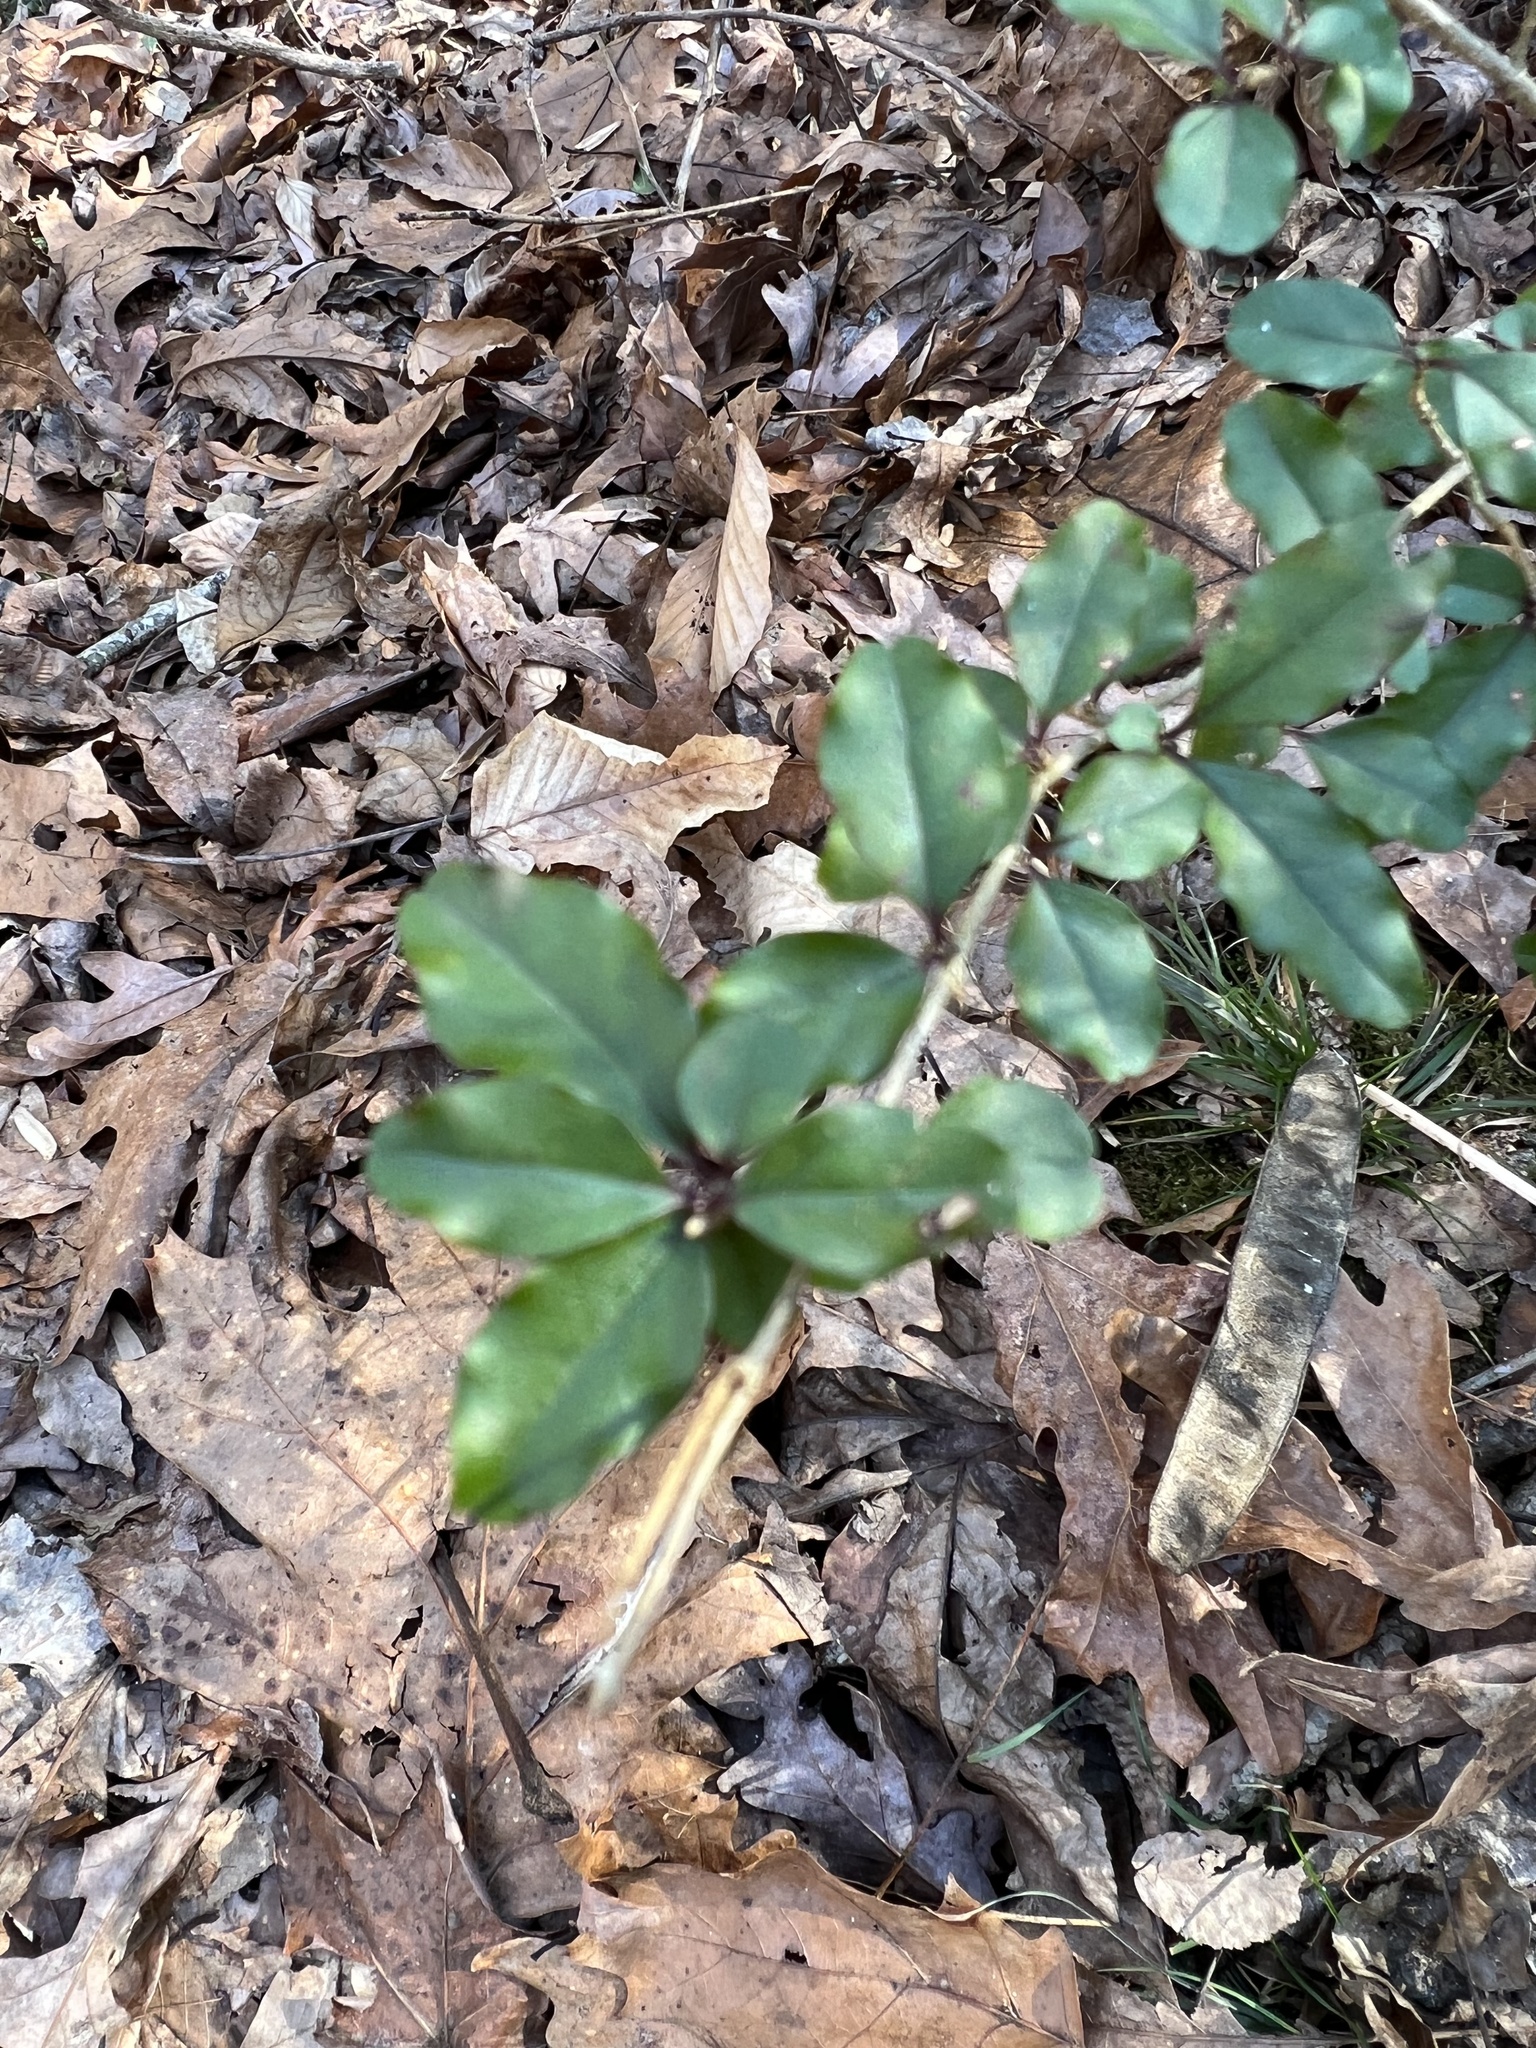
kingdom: Plantae
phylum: Tracheophyta
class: Magnoliopsida
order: Lamiales
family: Oleaceae
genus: Ligustrum
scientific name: Ligustrum sinense
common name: Chinese privet
